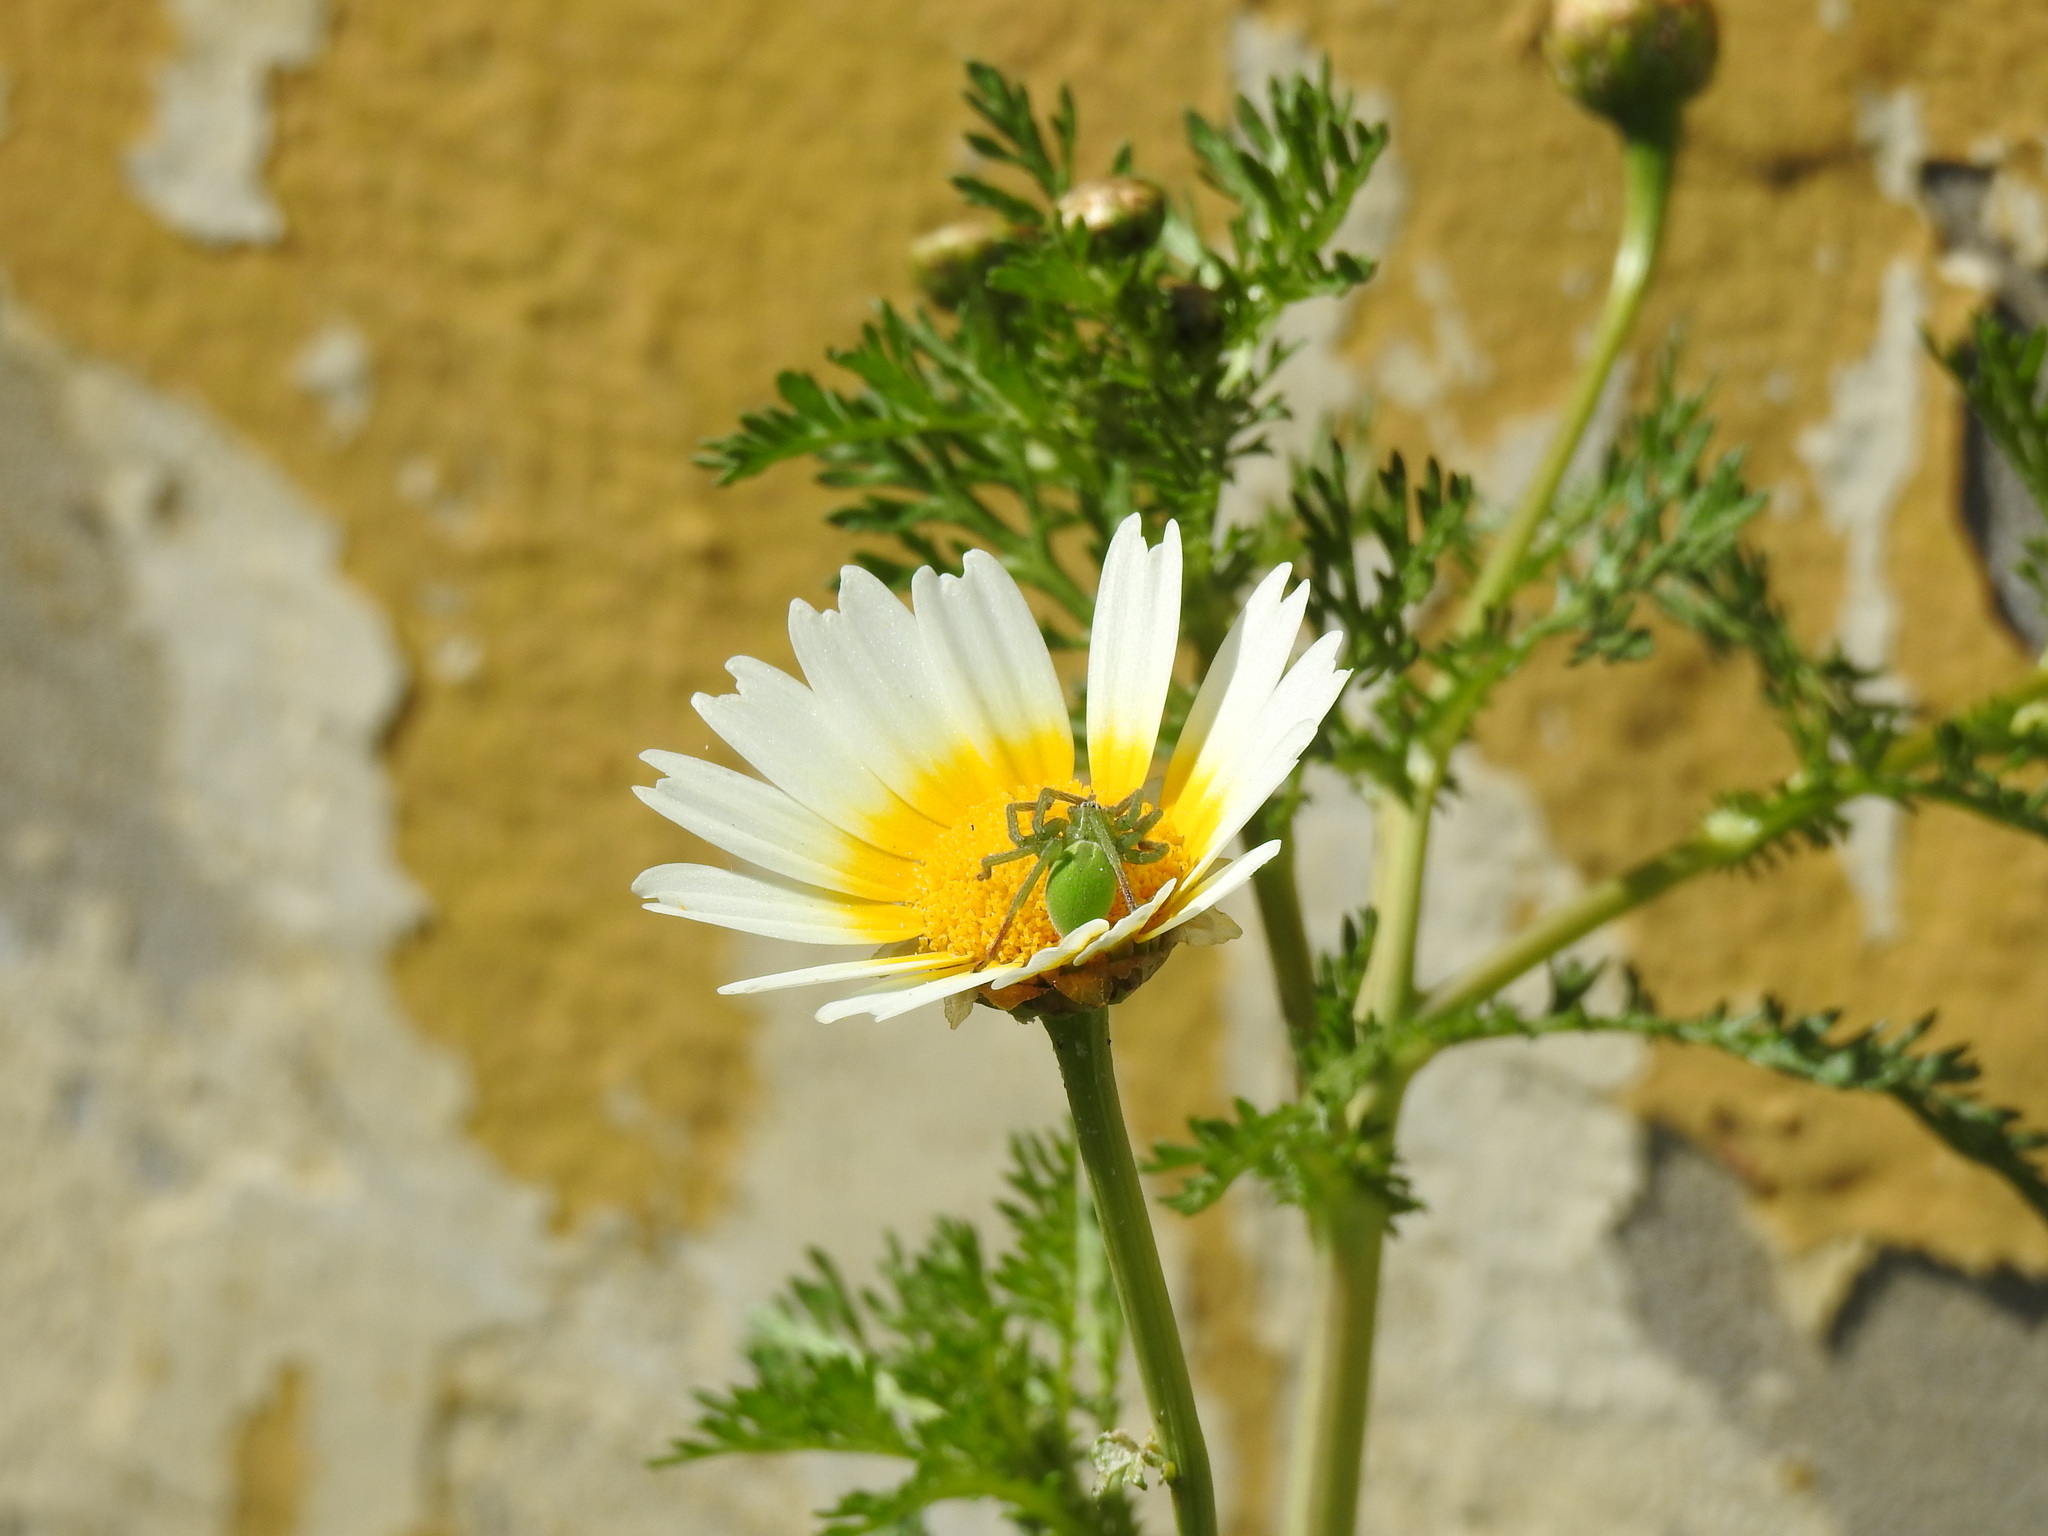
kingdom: Animalia
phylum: Arthropoda
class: Arachnida
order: Araneae
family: Sparassidae
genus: Micrommata
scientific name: Micrommata ligurina
